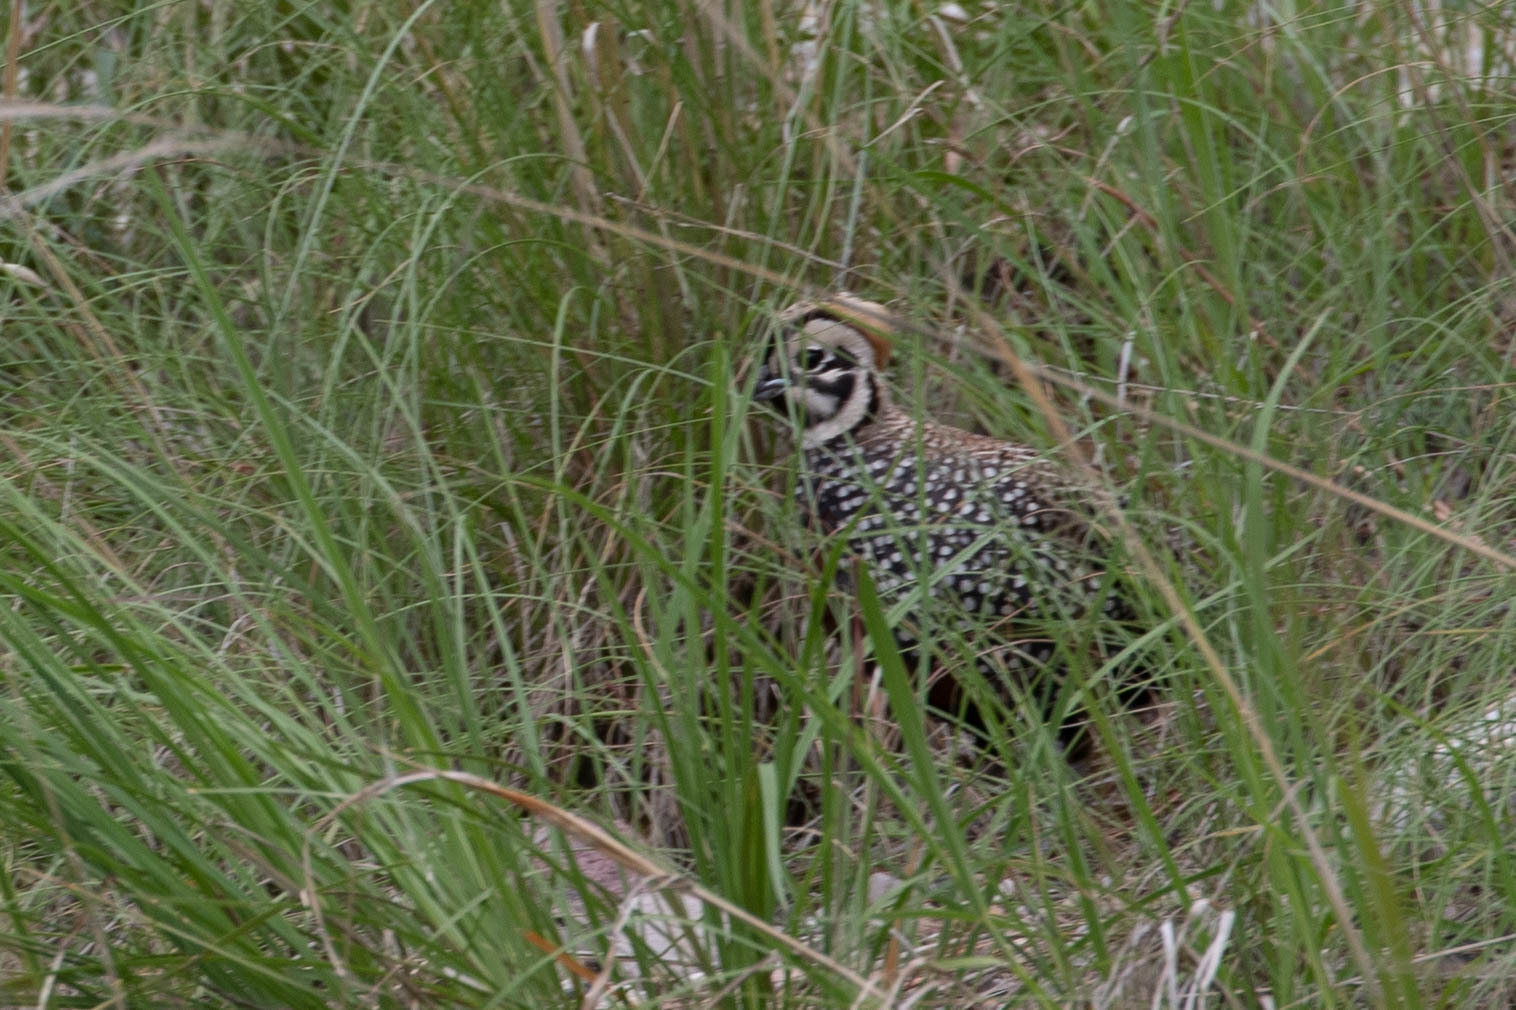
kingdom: Animalia
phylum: Chordata
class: Aves
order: Galliformes
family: Odontophoridae
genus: Cyrtonyx
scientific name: Cyrtonyx montezumae
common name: Montezuma quail
